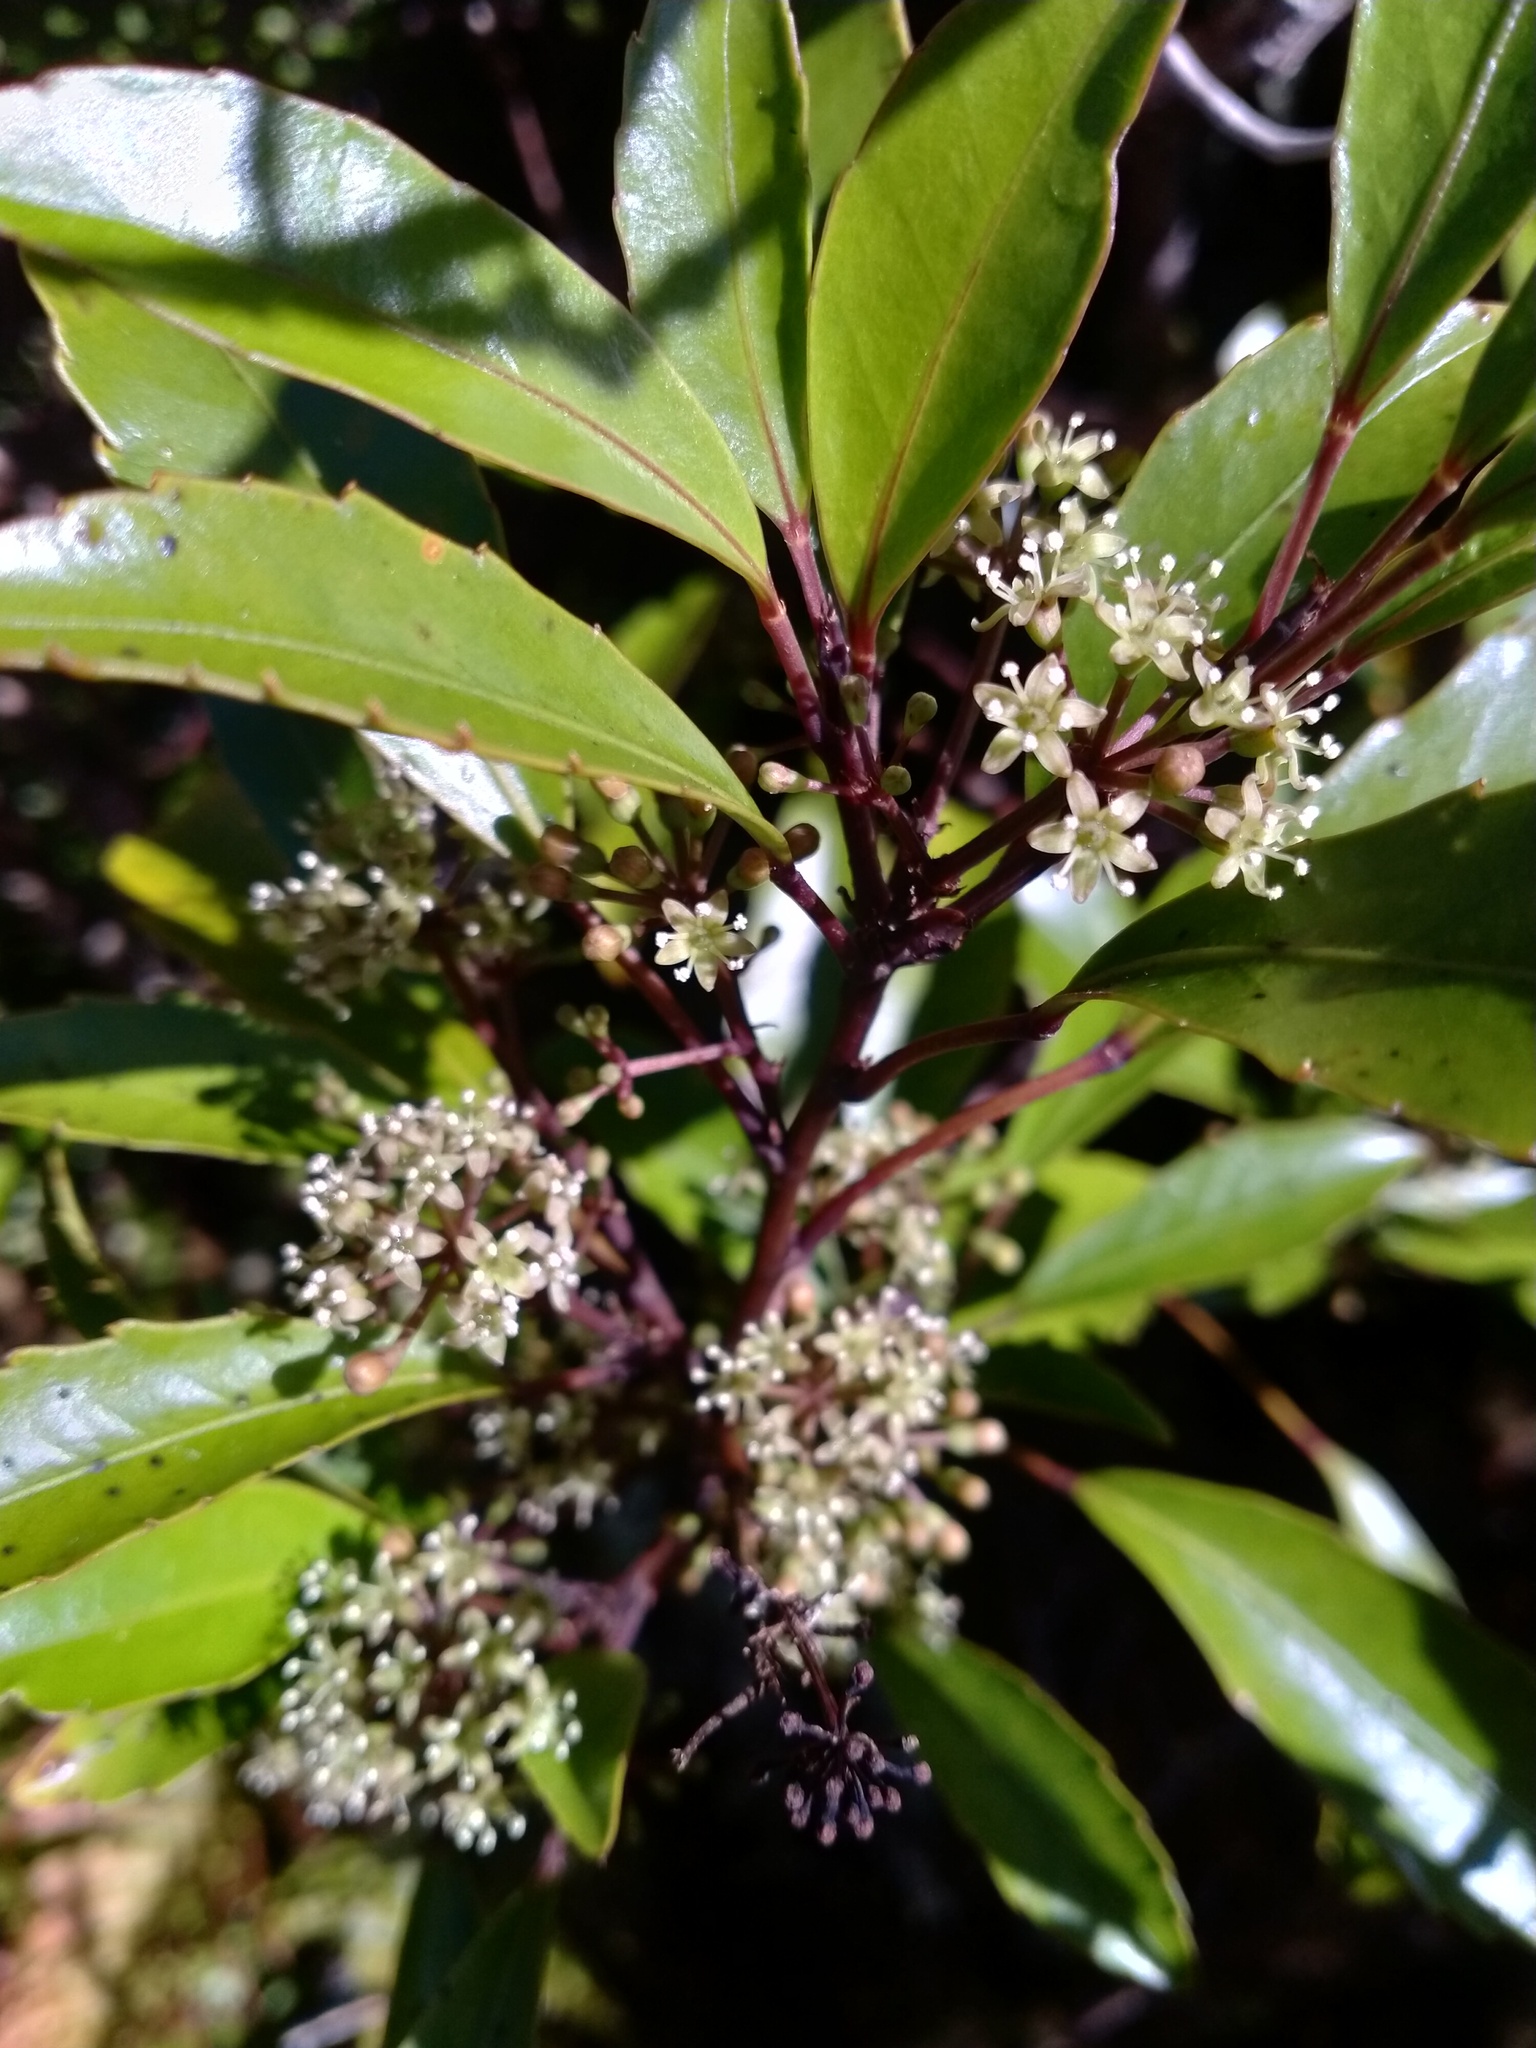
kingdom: Plantae
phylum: Tracheophyta
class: Magnoliopsida
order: Apiales
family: Araliaceae
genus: Raukaua
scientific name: Raukaua simplex
